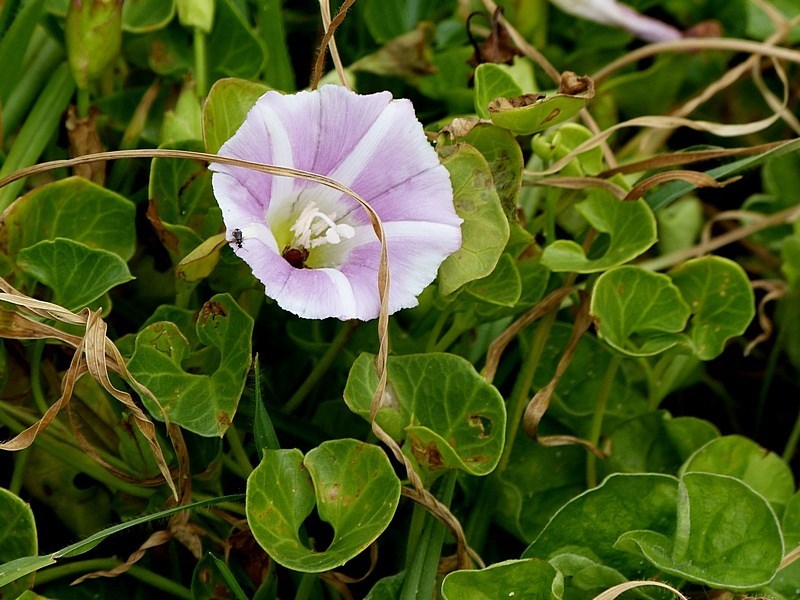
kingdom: Plantae
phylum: Tracheophyta
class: Magnoliopsida
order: Solanales
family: Convolvulaceae
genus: Calystegia
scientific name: Calystegia soldanella
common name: Sea bindweed
